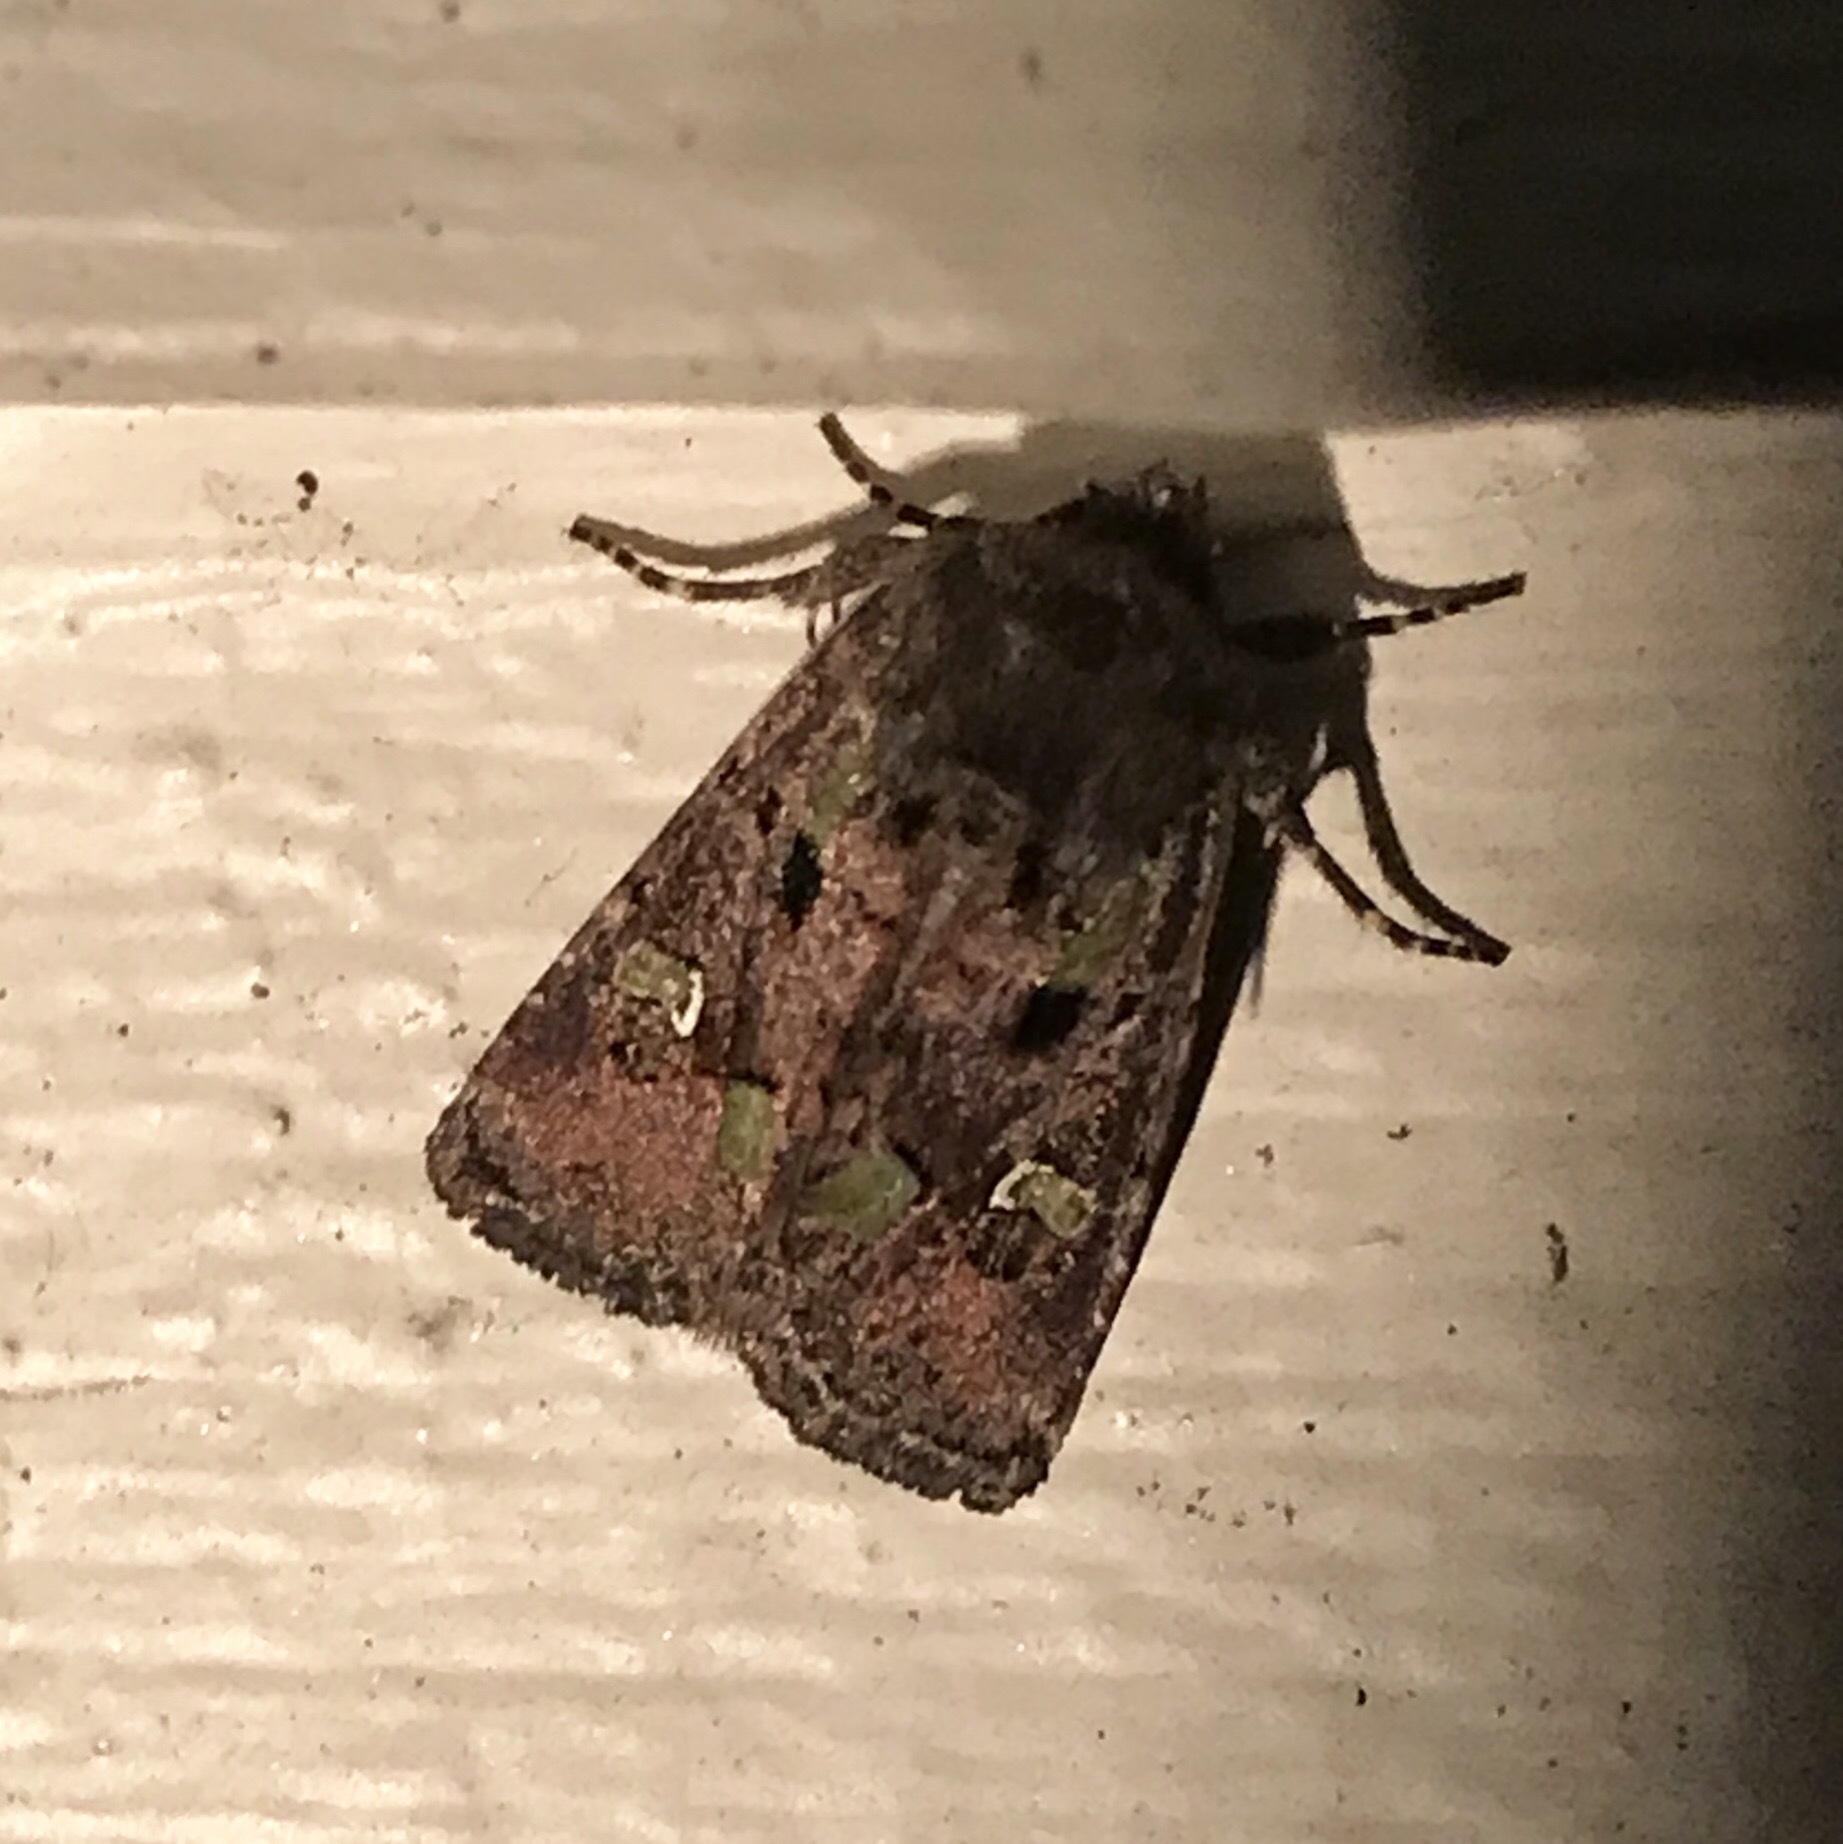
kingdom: Animalia
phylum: Arthropoda
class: Insecta
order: Lepidoptera
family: Noctuidae
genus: Lacinipolia
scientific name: Lacinipolia renigera
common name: Kidney-spotted minor
